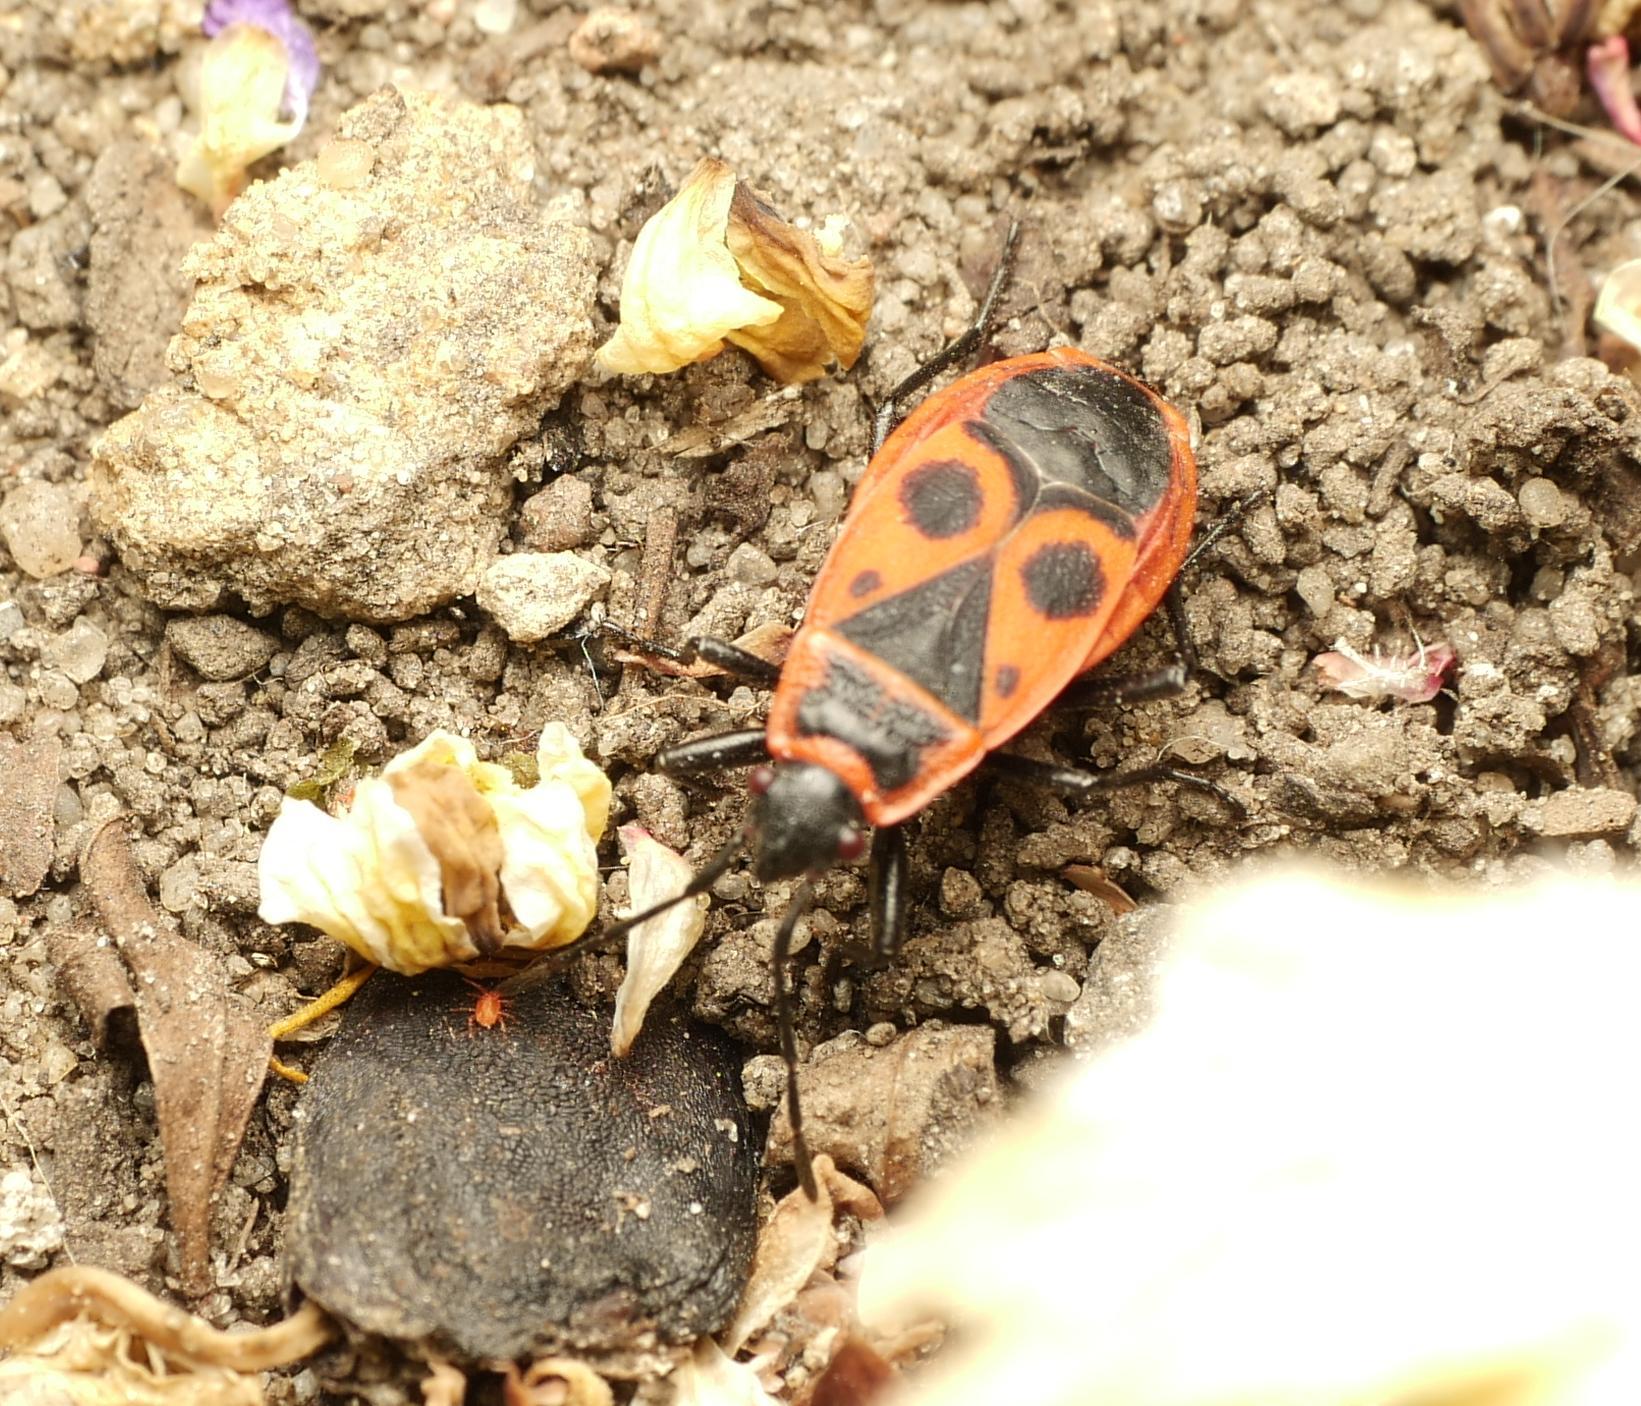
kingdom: Animalia
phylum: Arthropoda
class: Insecta
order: Hemiptera
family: Pyrrhocoridae
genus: Pyrrhocoris
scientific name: Pyrrhocoris apterus
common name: Firebug
